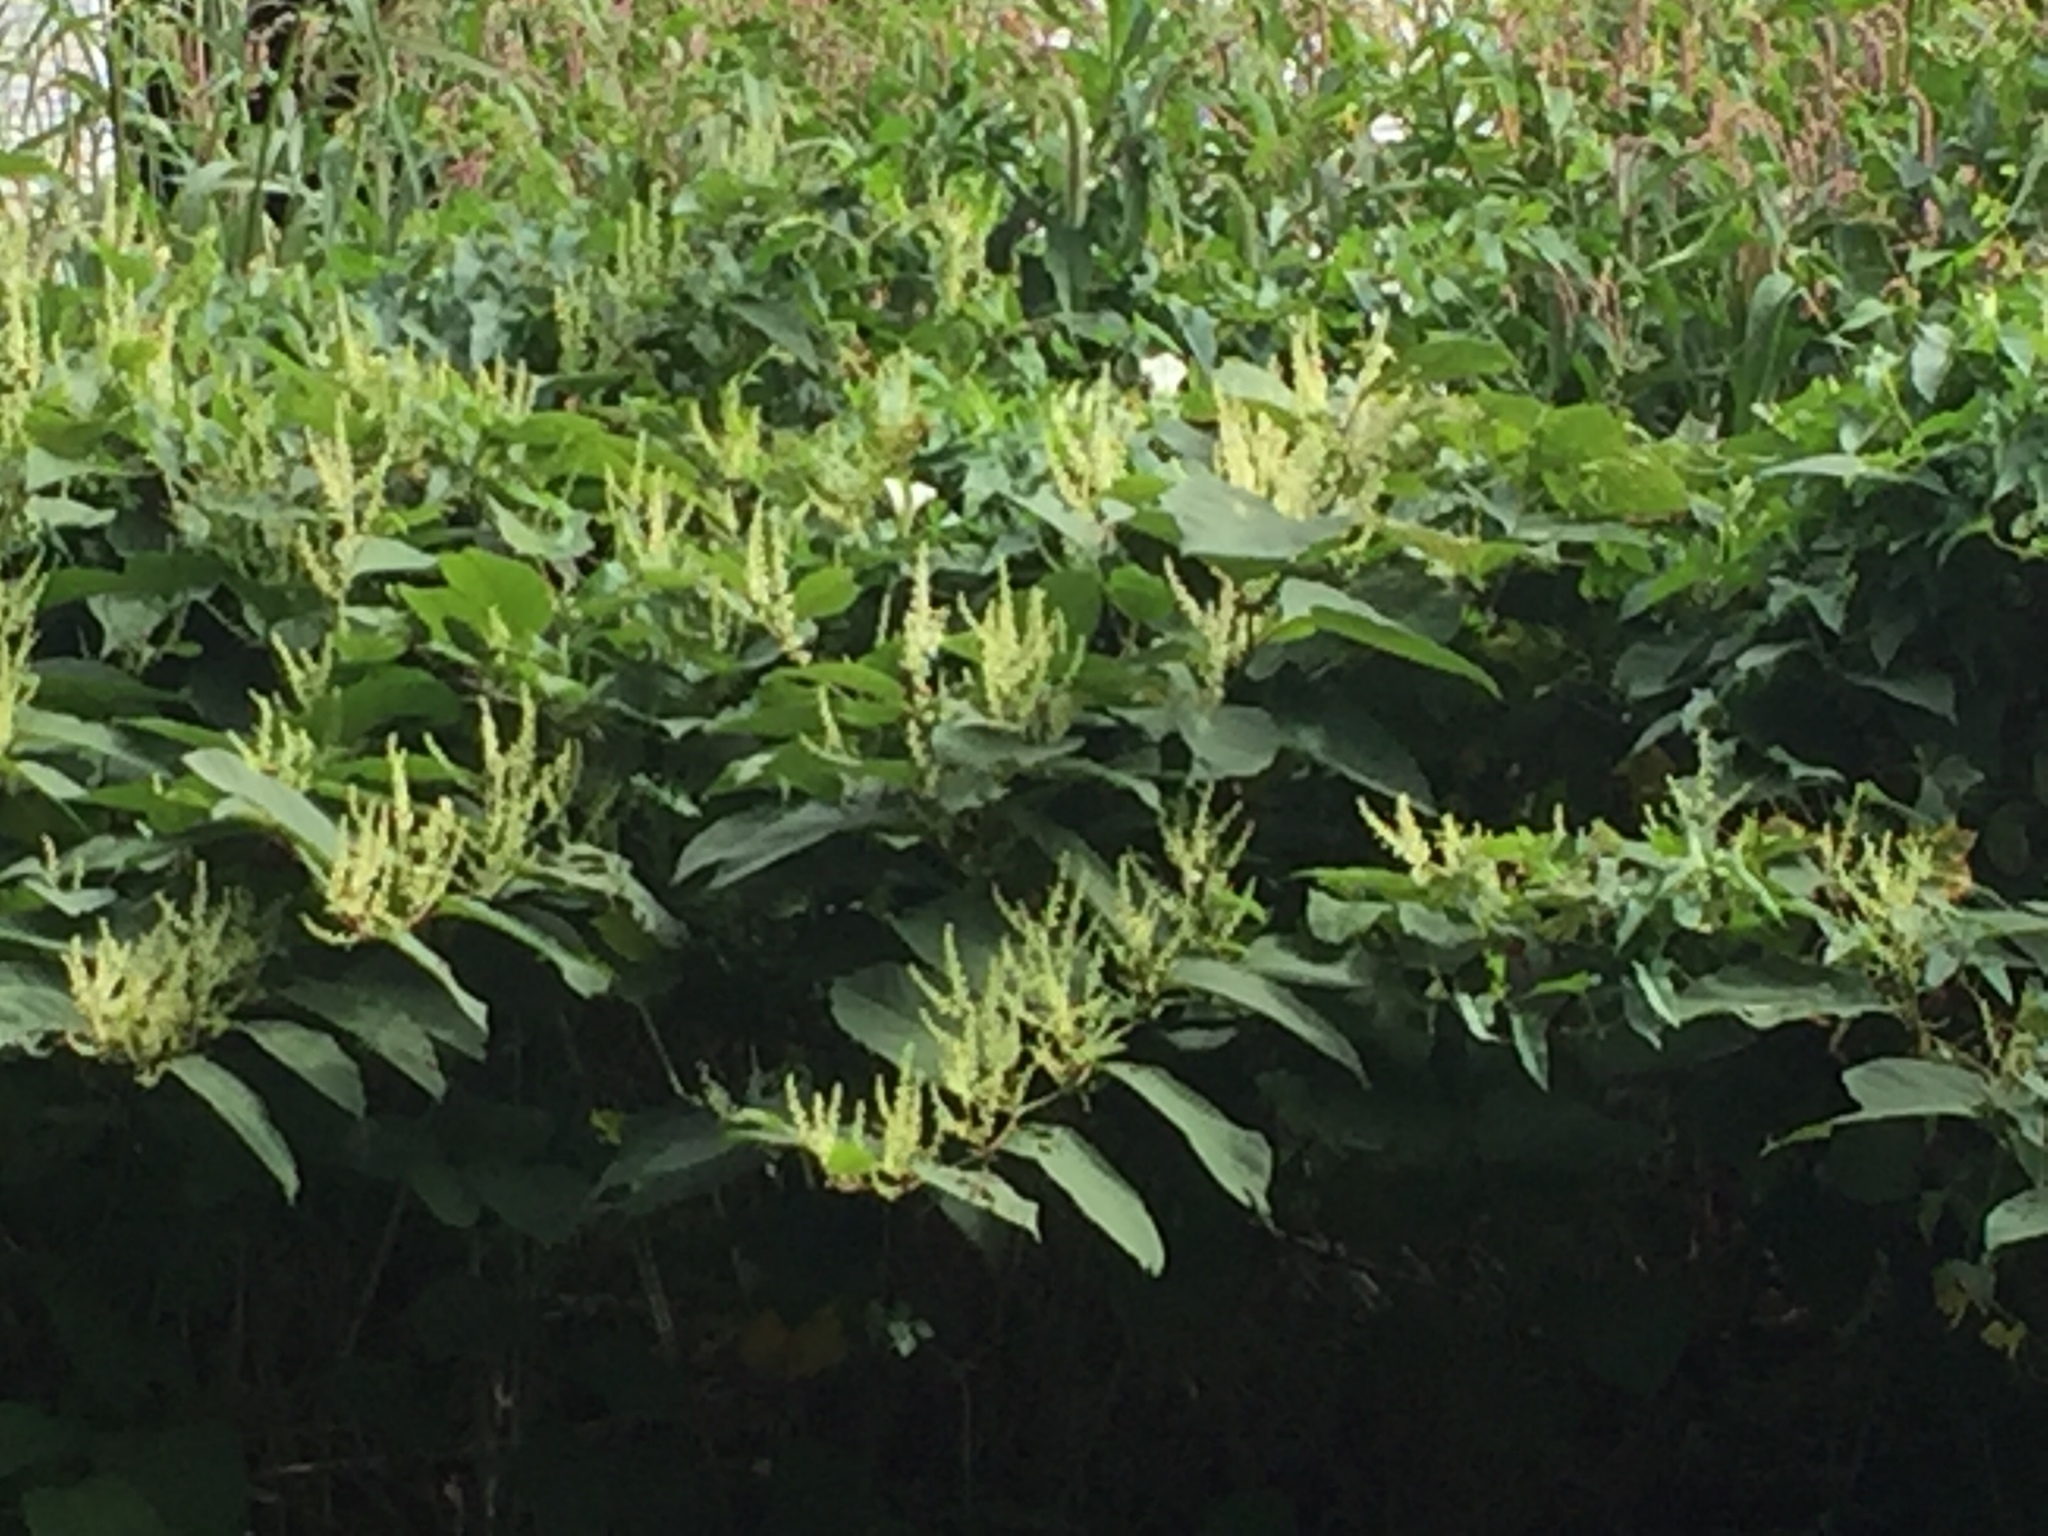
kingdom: Plantae
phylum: Tracheophyta
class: Magnoliopsida
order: Caryophyllales
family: Polygonaceae
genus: Reynoutria
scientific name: Reynoutria japonica
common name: Japanese knotweed
